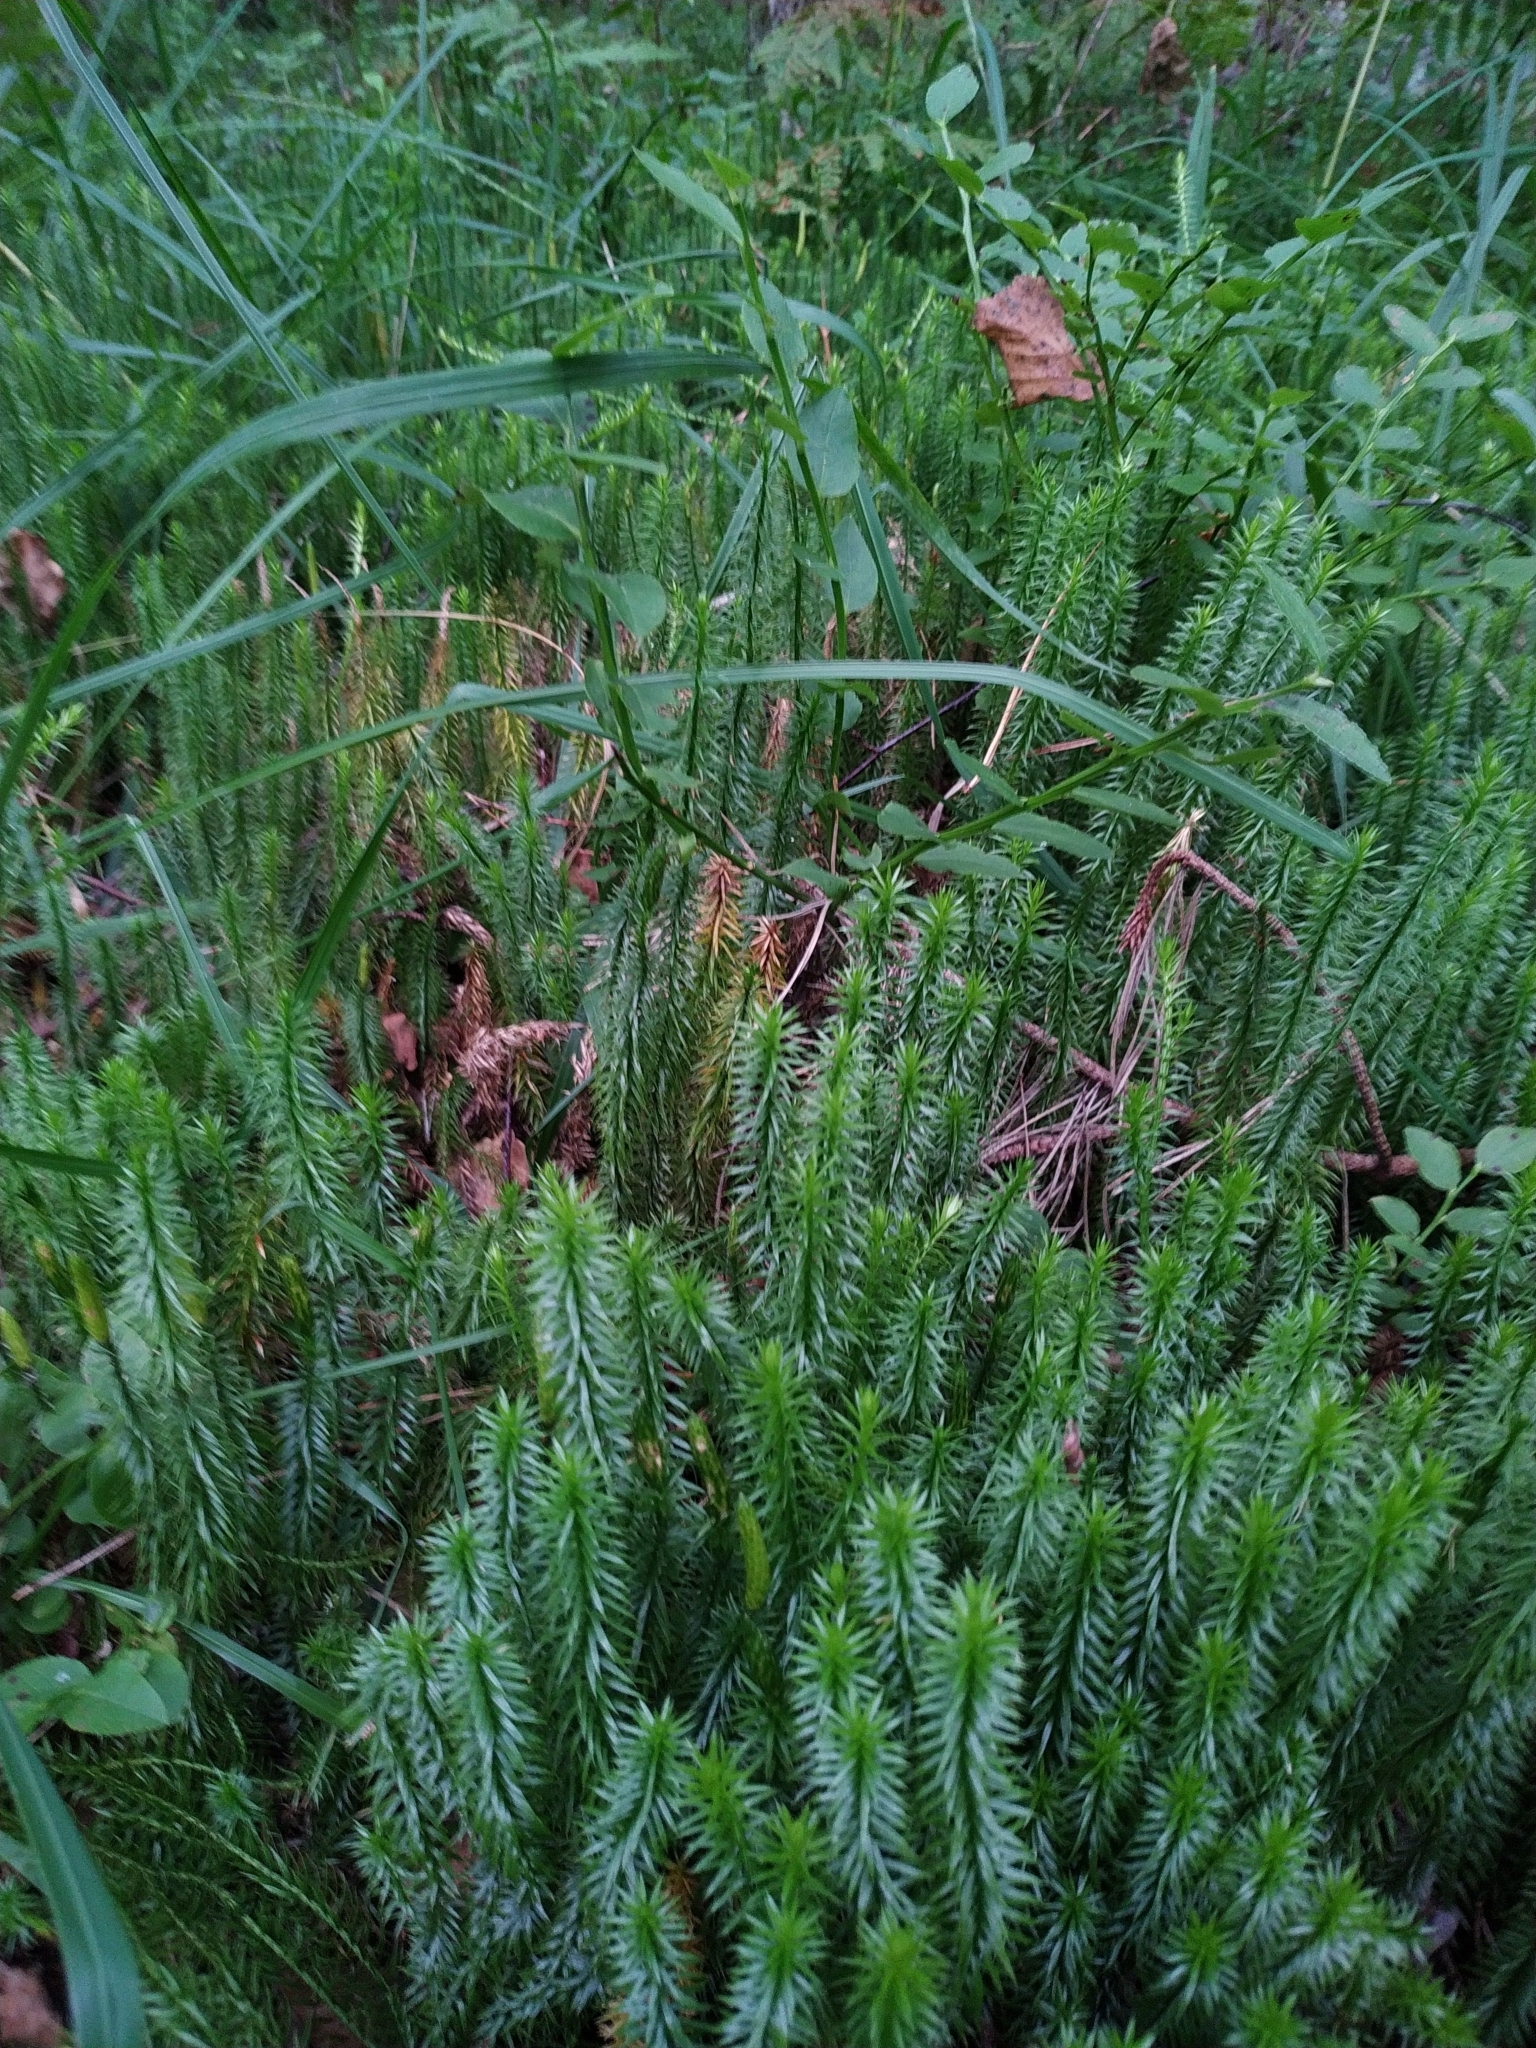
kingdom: Plantae
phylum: Tracheophyta
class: Lycopodiopsida
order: Lycopodiales
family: Lycopodiaceae
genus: Spinulum
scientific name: Spinulum annotinum
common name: Interrupted club-moss
